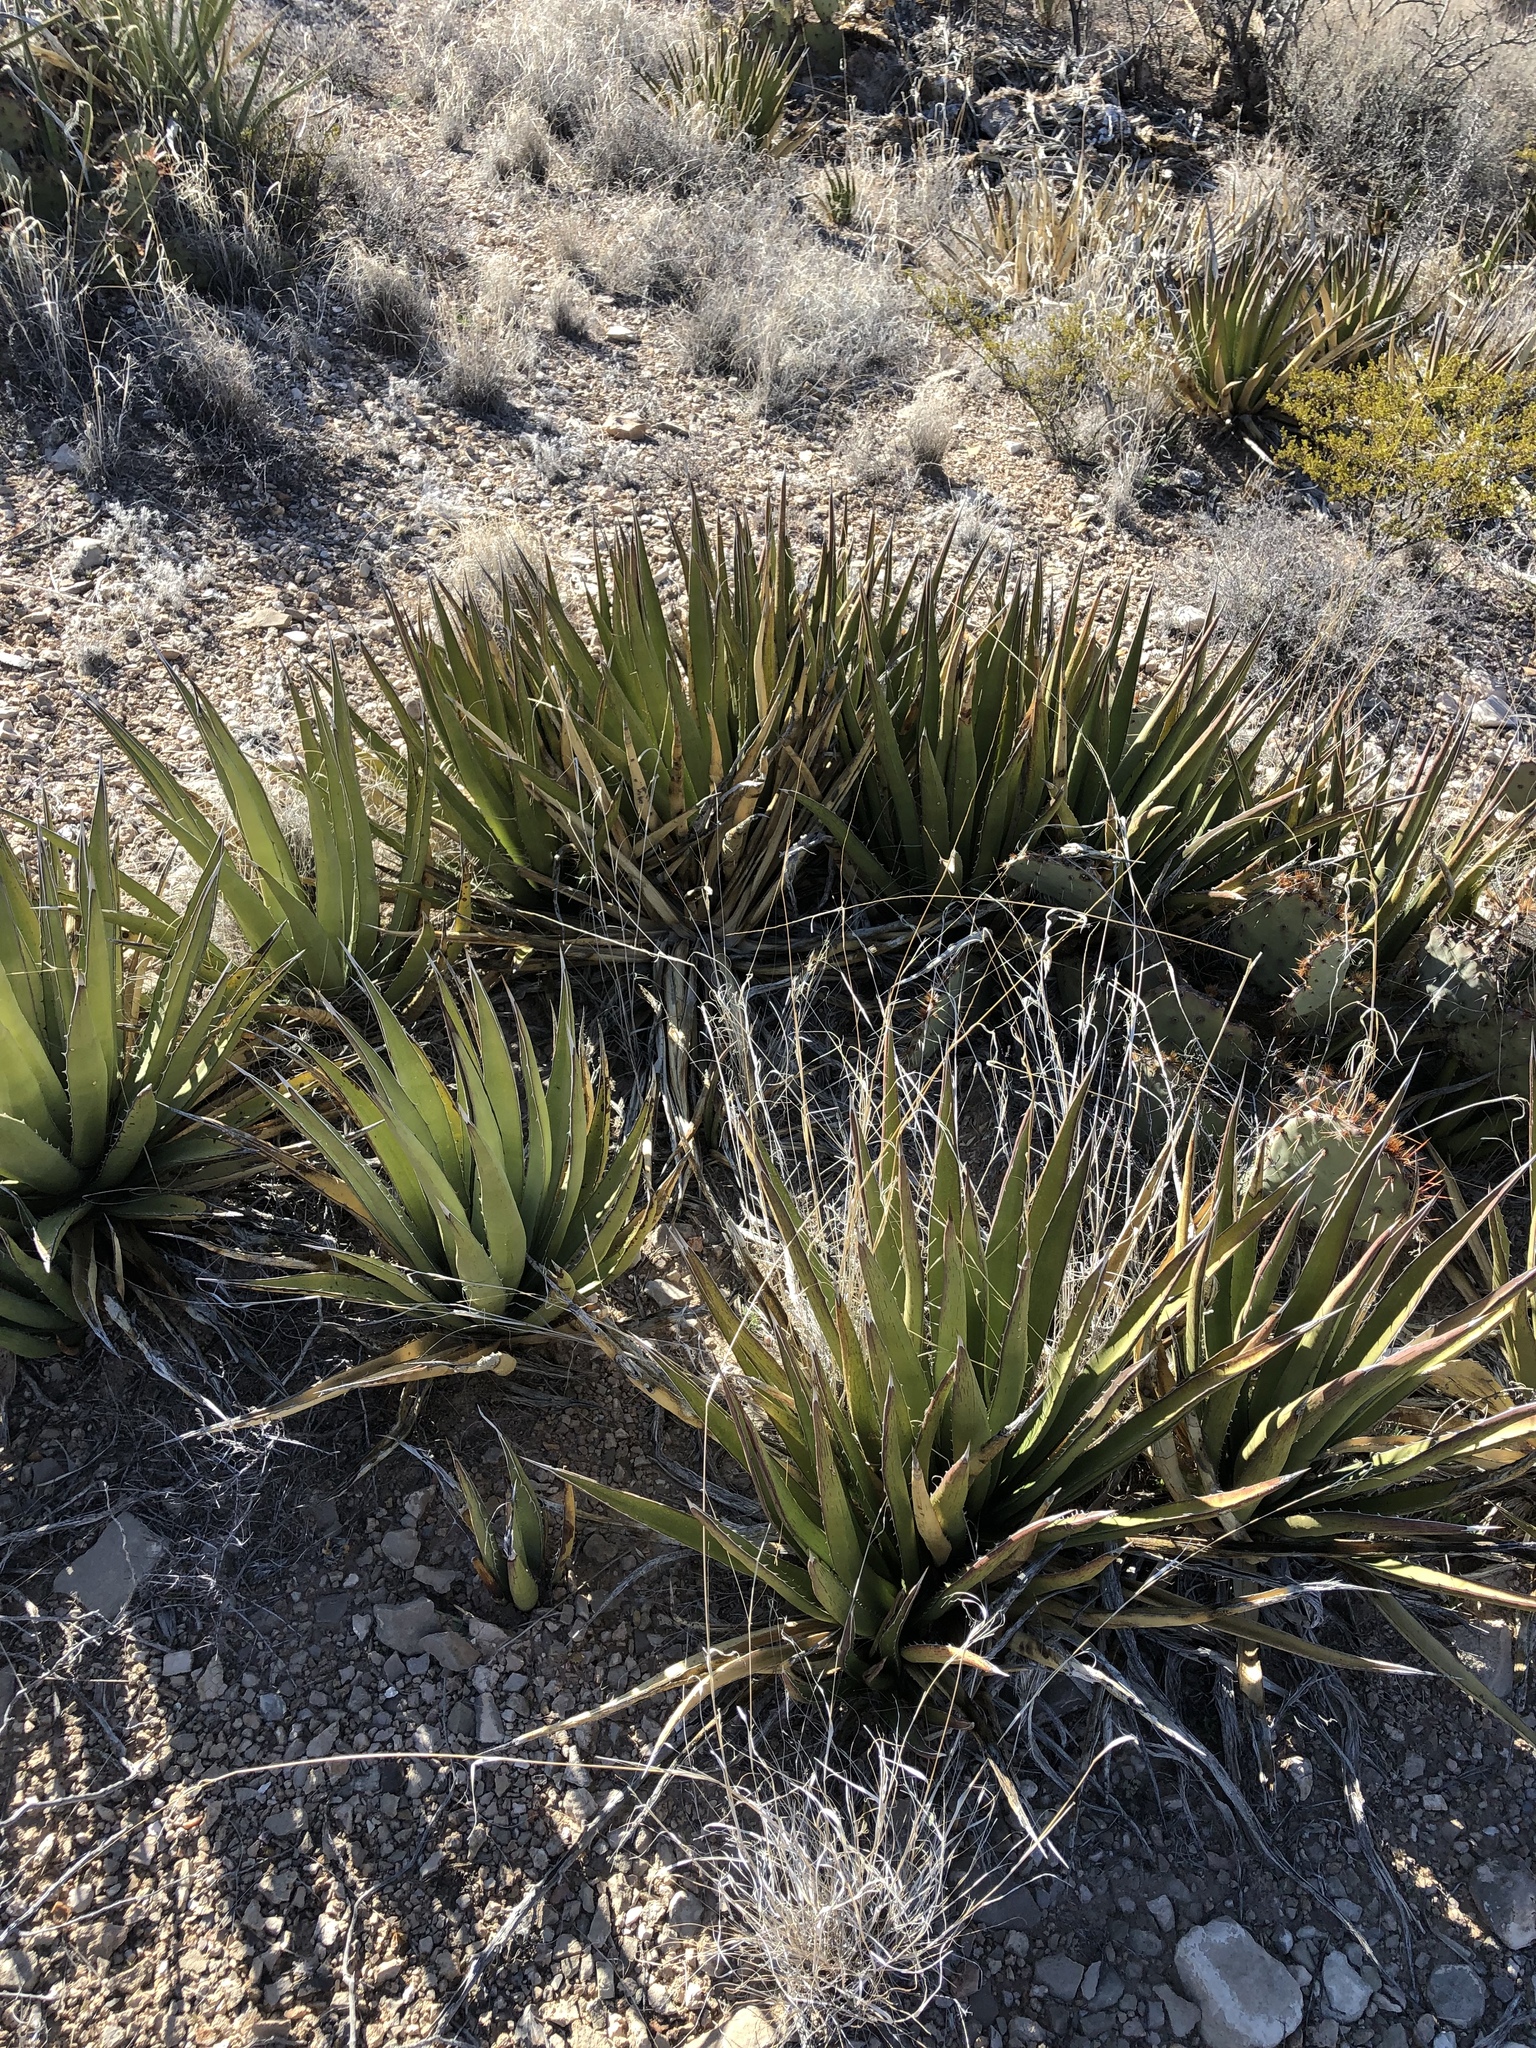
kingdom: Plantae
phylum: Tracheophyta
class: Liliopsida
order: Asparagales
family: Asparagaceae
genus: Agave
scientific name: Agave lechuguilla
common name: Lecheguilla agave
